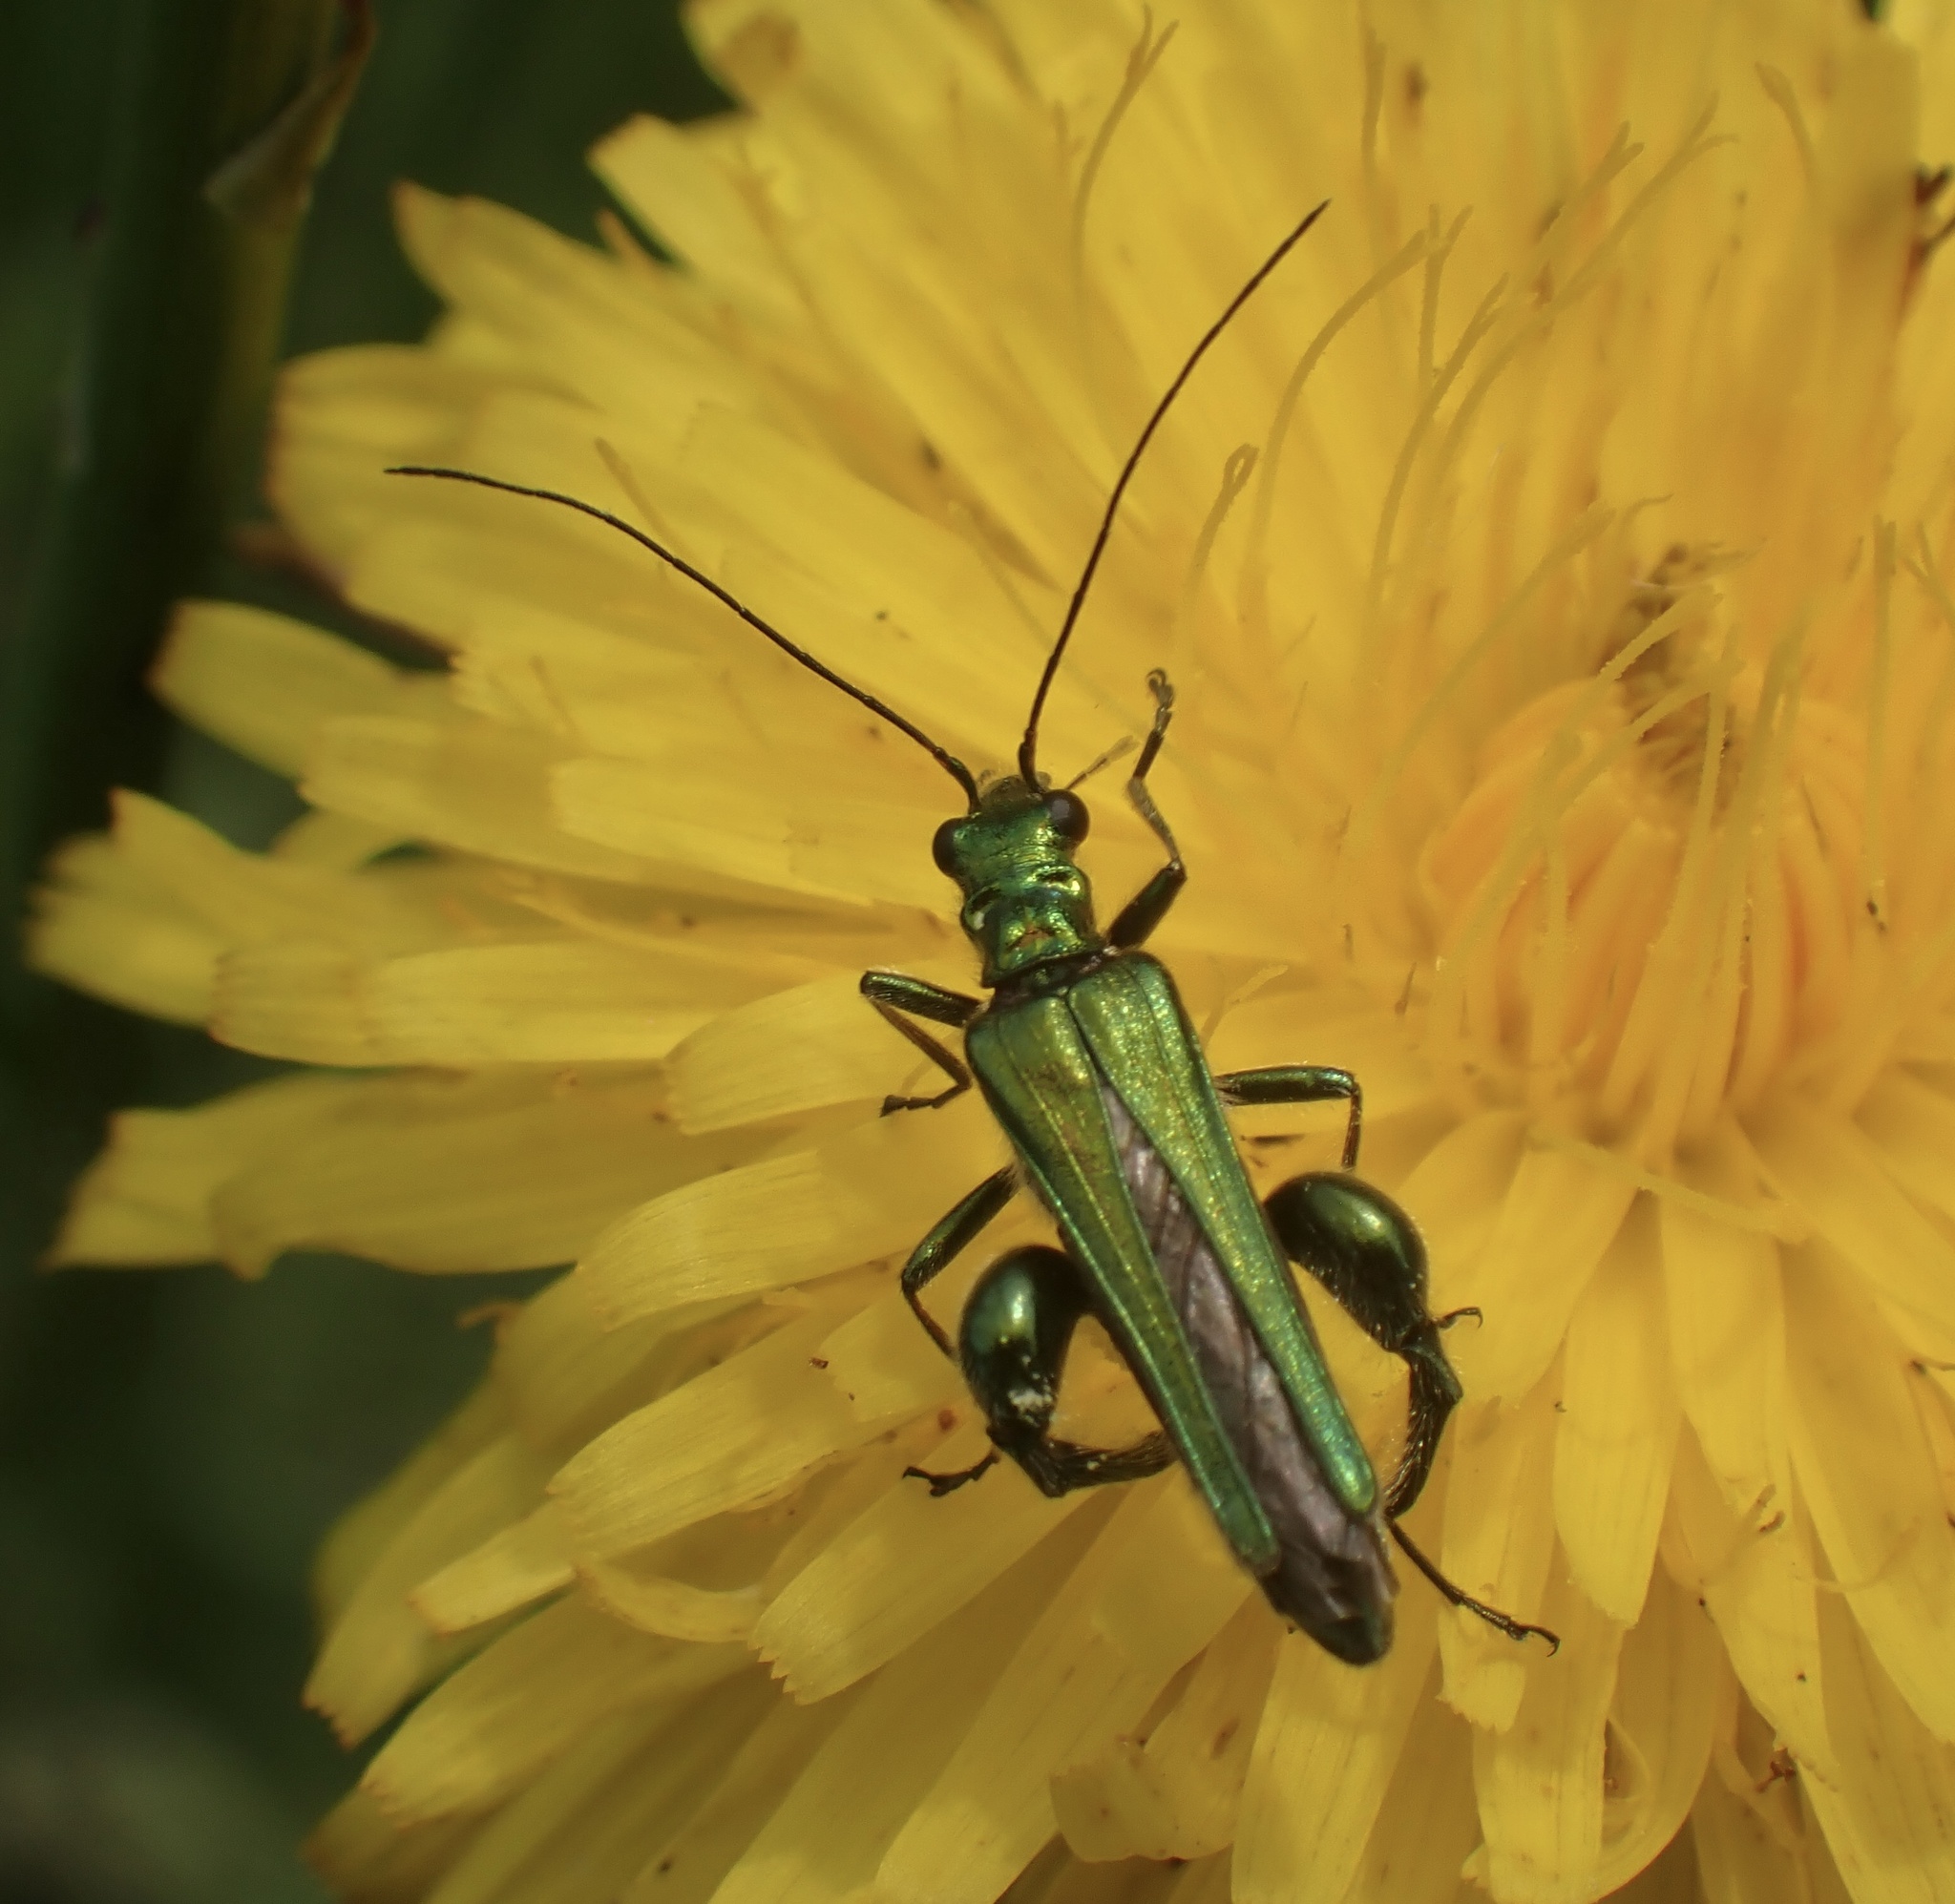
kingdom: Animalia
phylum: Arthropoda
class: Insecta
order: Coleoptera
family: Oedemeridae
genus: Oedemera
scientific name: Oedemera nobilis
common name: Swollen-thighed beetle
